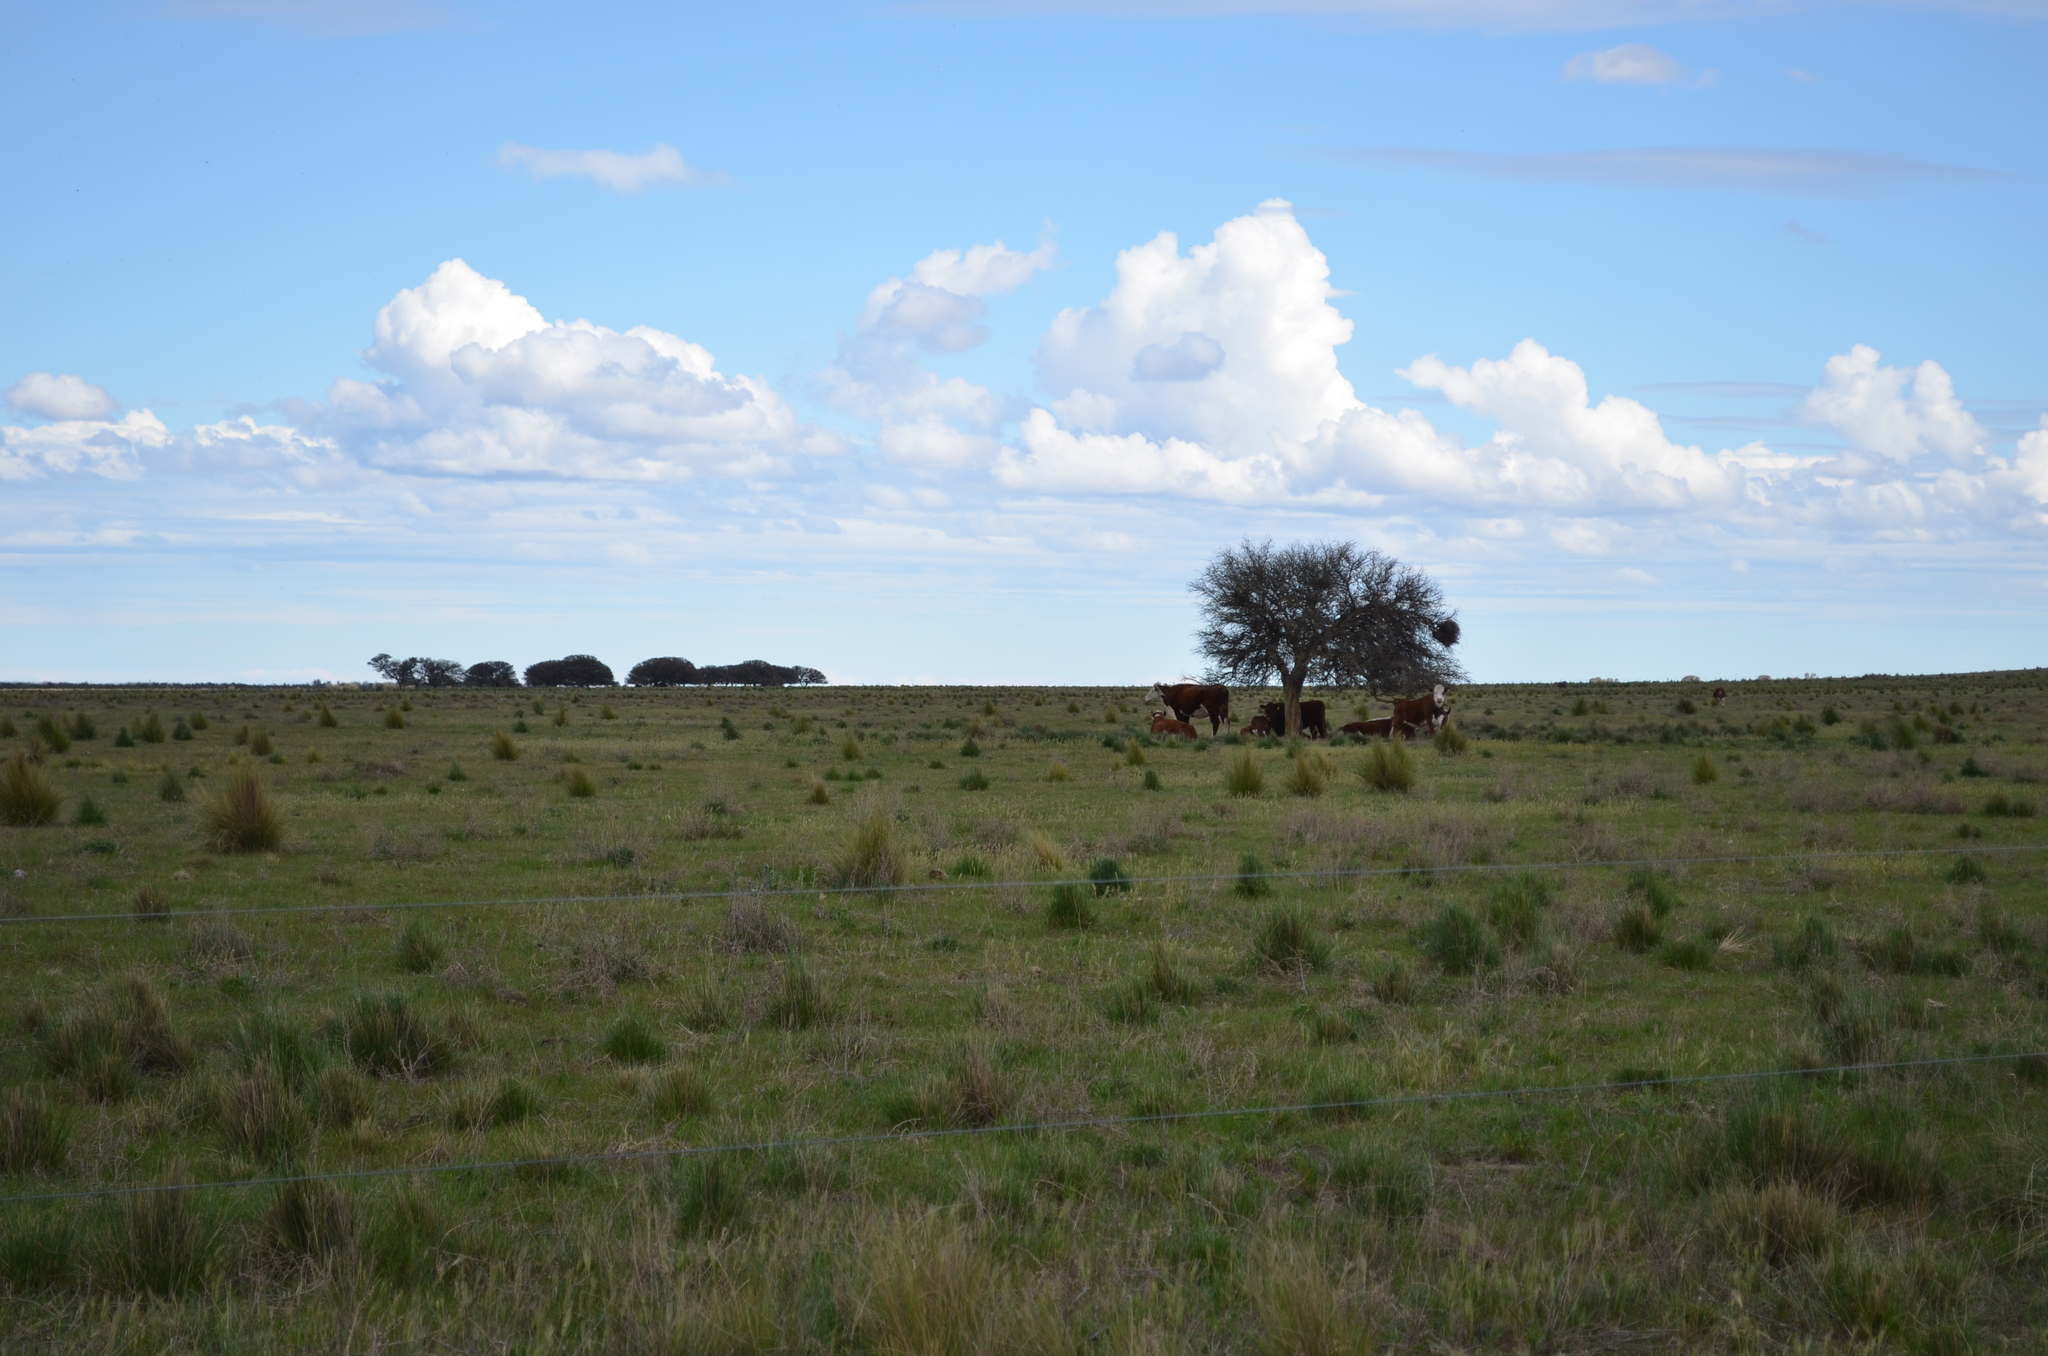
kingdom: Plantae
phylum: Tracheophyta
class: Magnoliopsida
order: Fabales
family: Fabaceae
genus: Prosopis
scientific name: Prosopis caldenia
